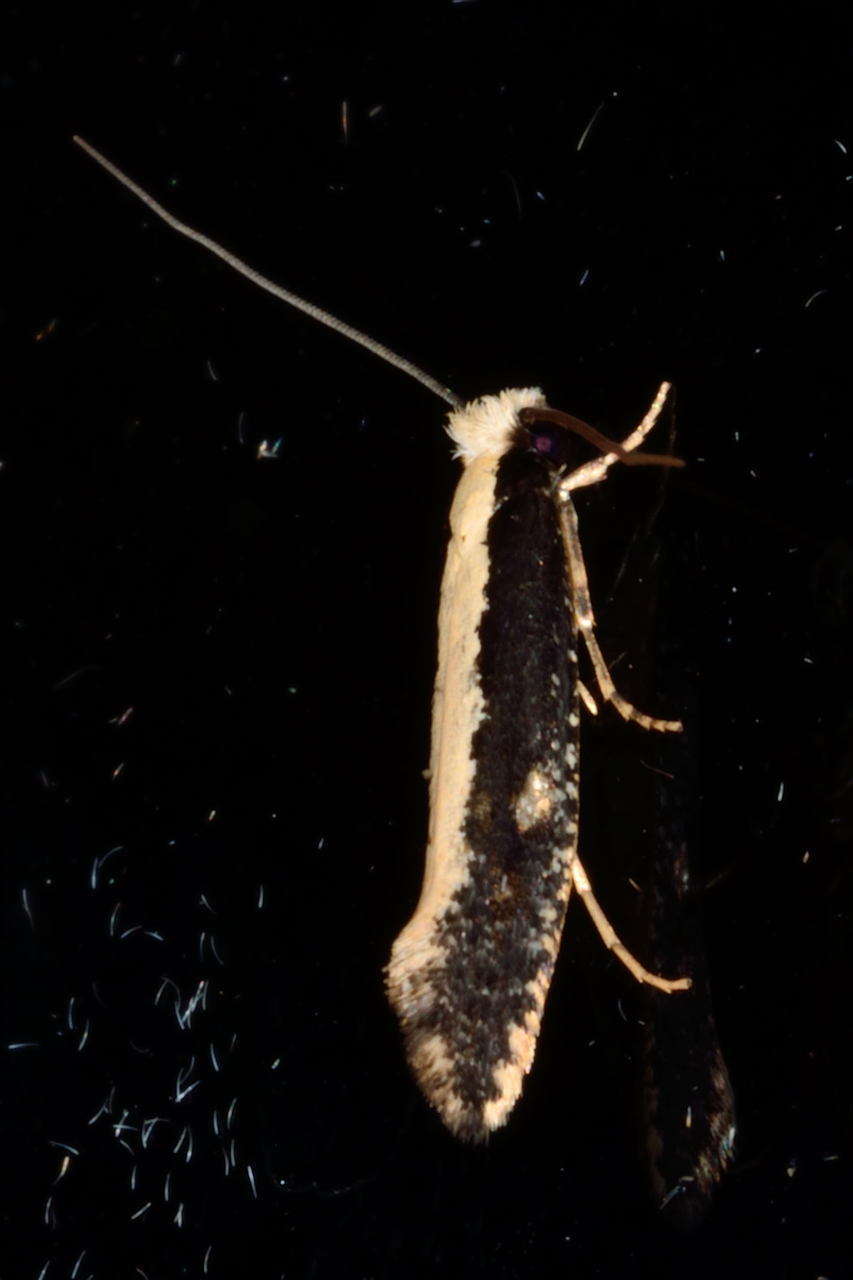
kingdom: Animalia
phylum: Arthropoda
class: Insecta
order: Lepidoptera
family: Tineidae
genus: Monopis
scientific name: Monopis ethelella
